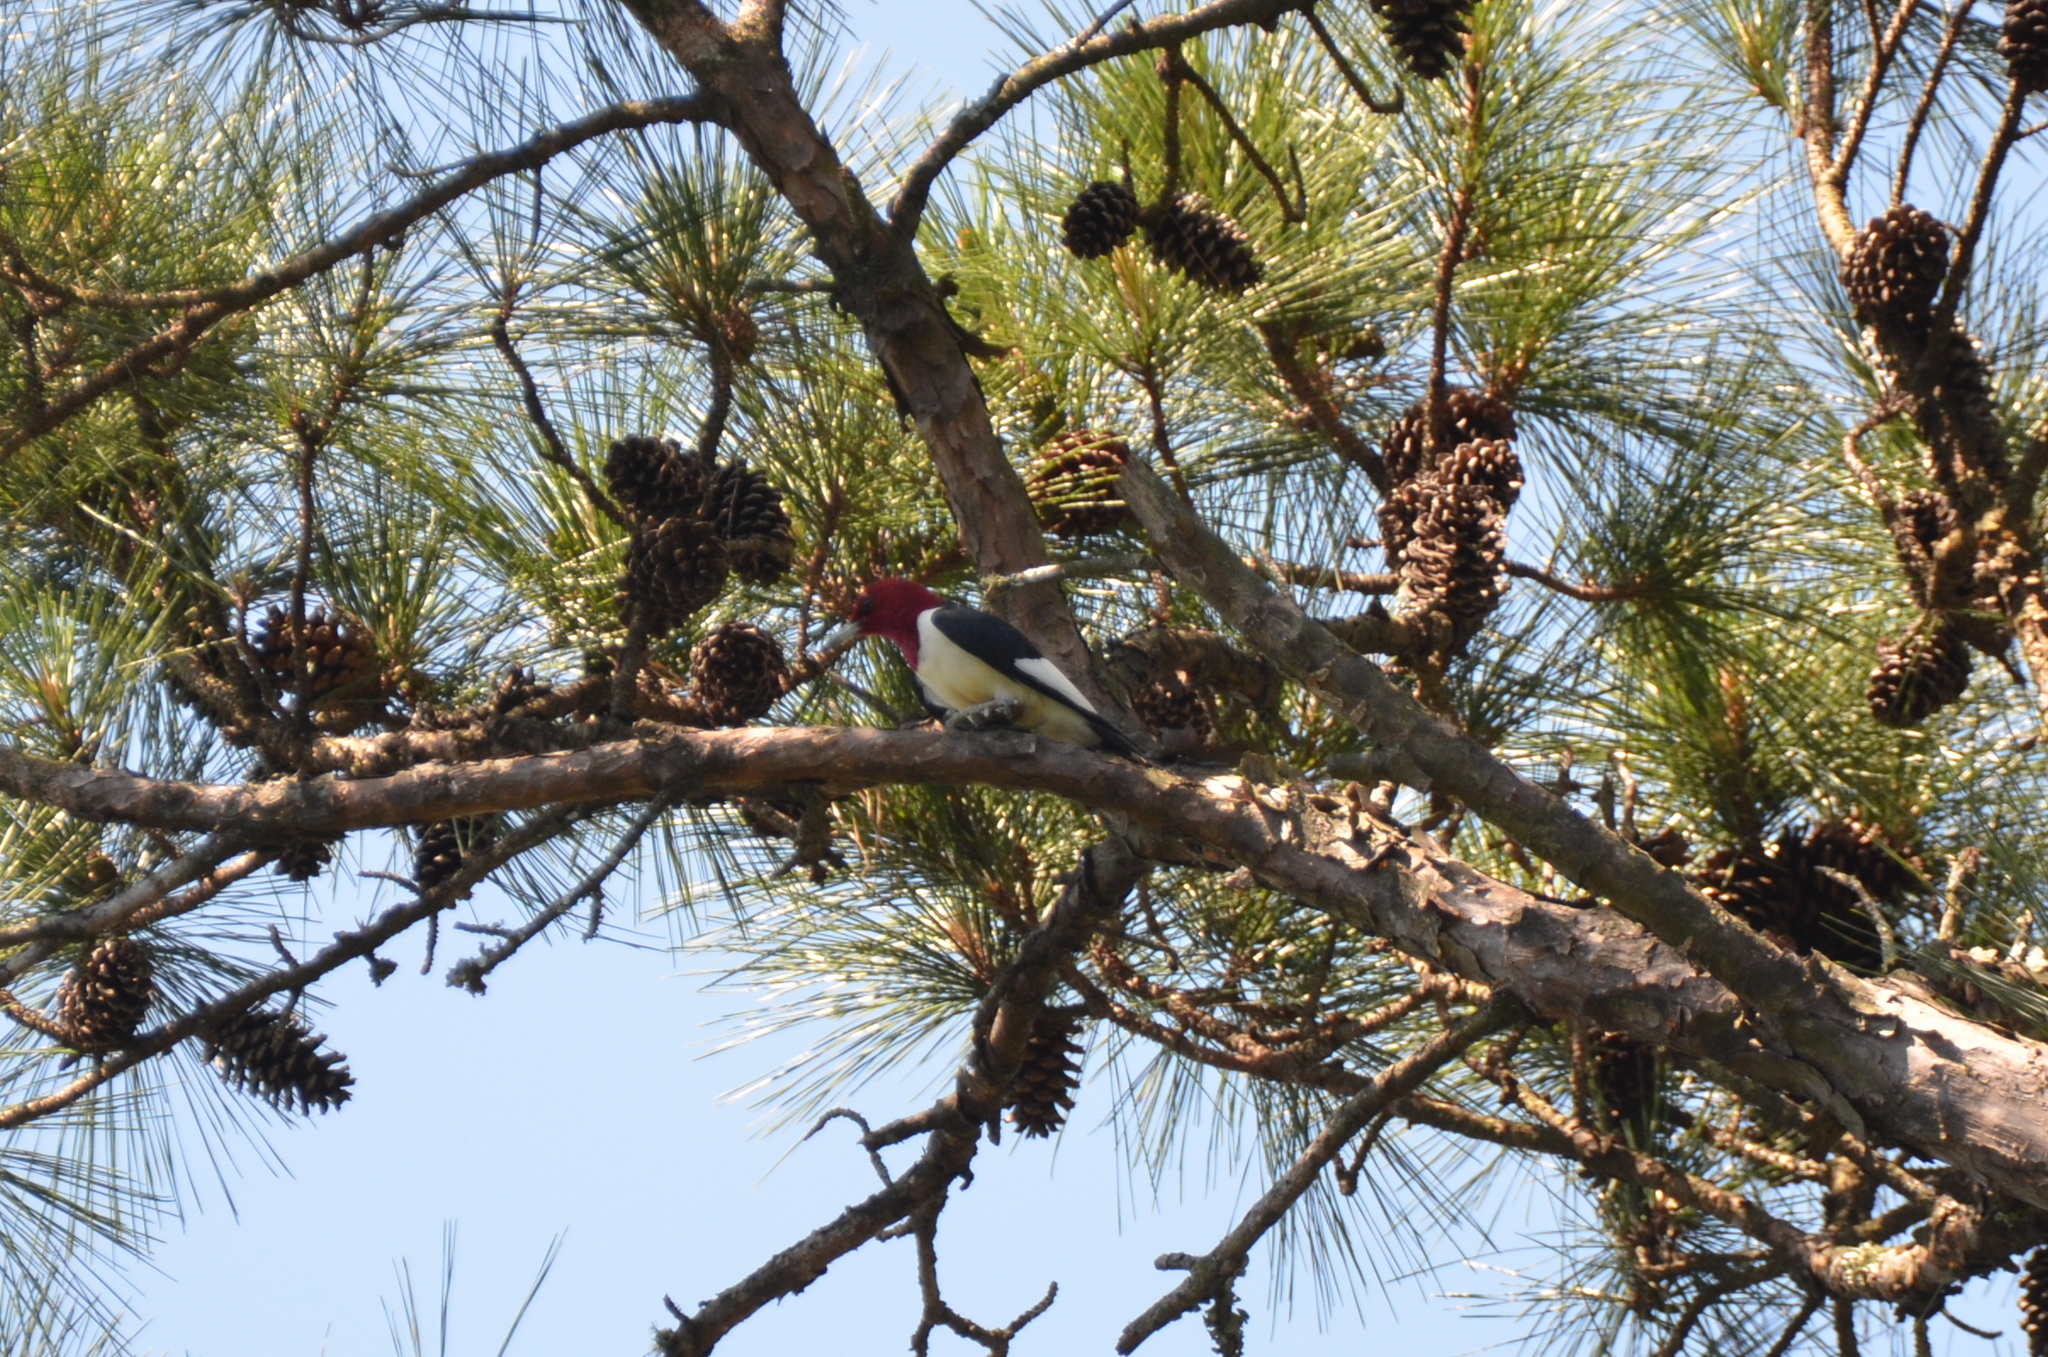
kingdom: Animalia
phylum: Chordata
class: Aves
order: Piciformes
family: Picidae
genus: Melanerpes
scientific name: Melanerpes erythrocephalus
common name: Red-headed woodpecker
